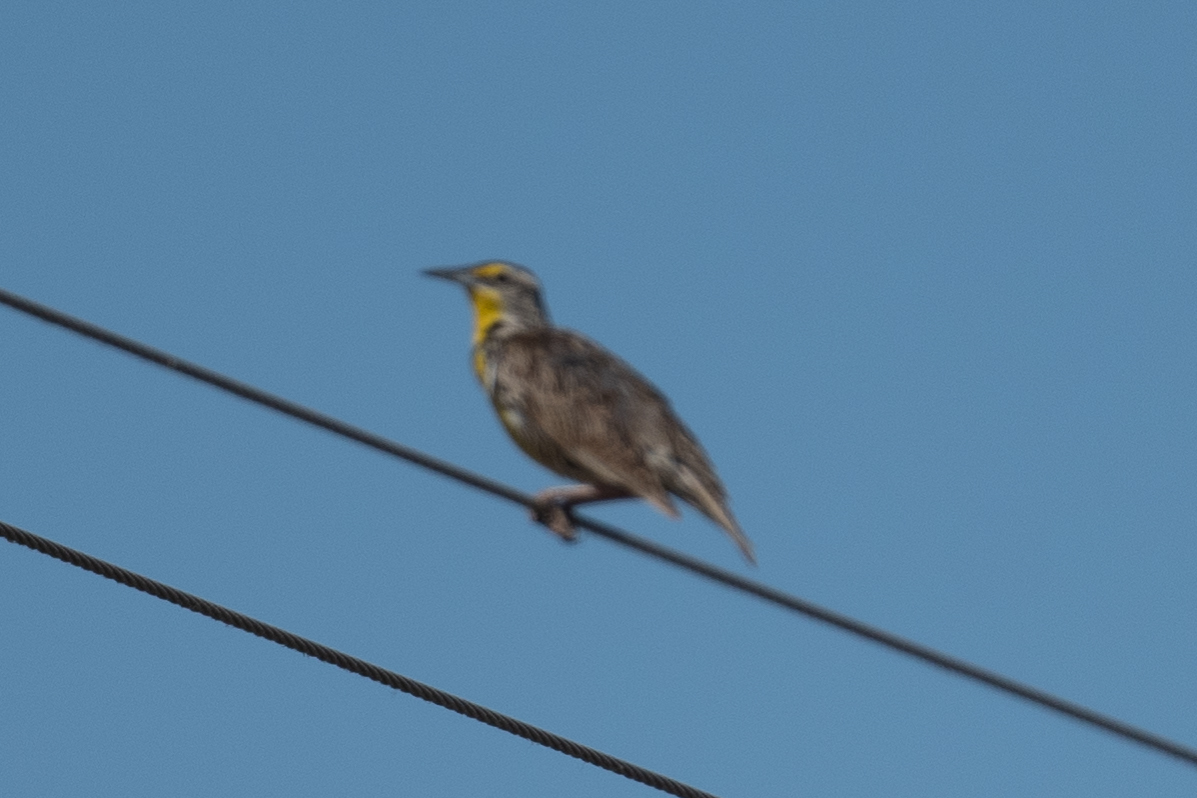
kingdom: Animalia
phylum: Chordata
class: Aves
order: Passeriformes
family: Icteridae
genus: Sturnella
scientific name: Sturnella neglecta
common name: Western meadowlark
